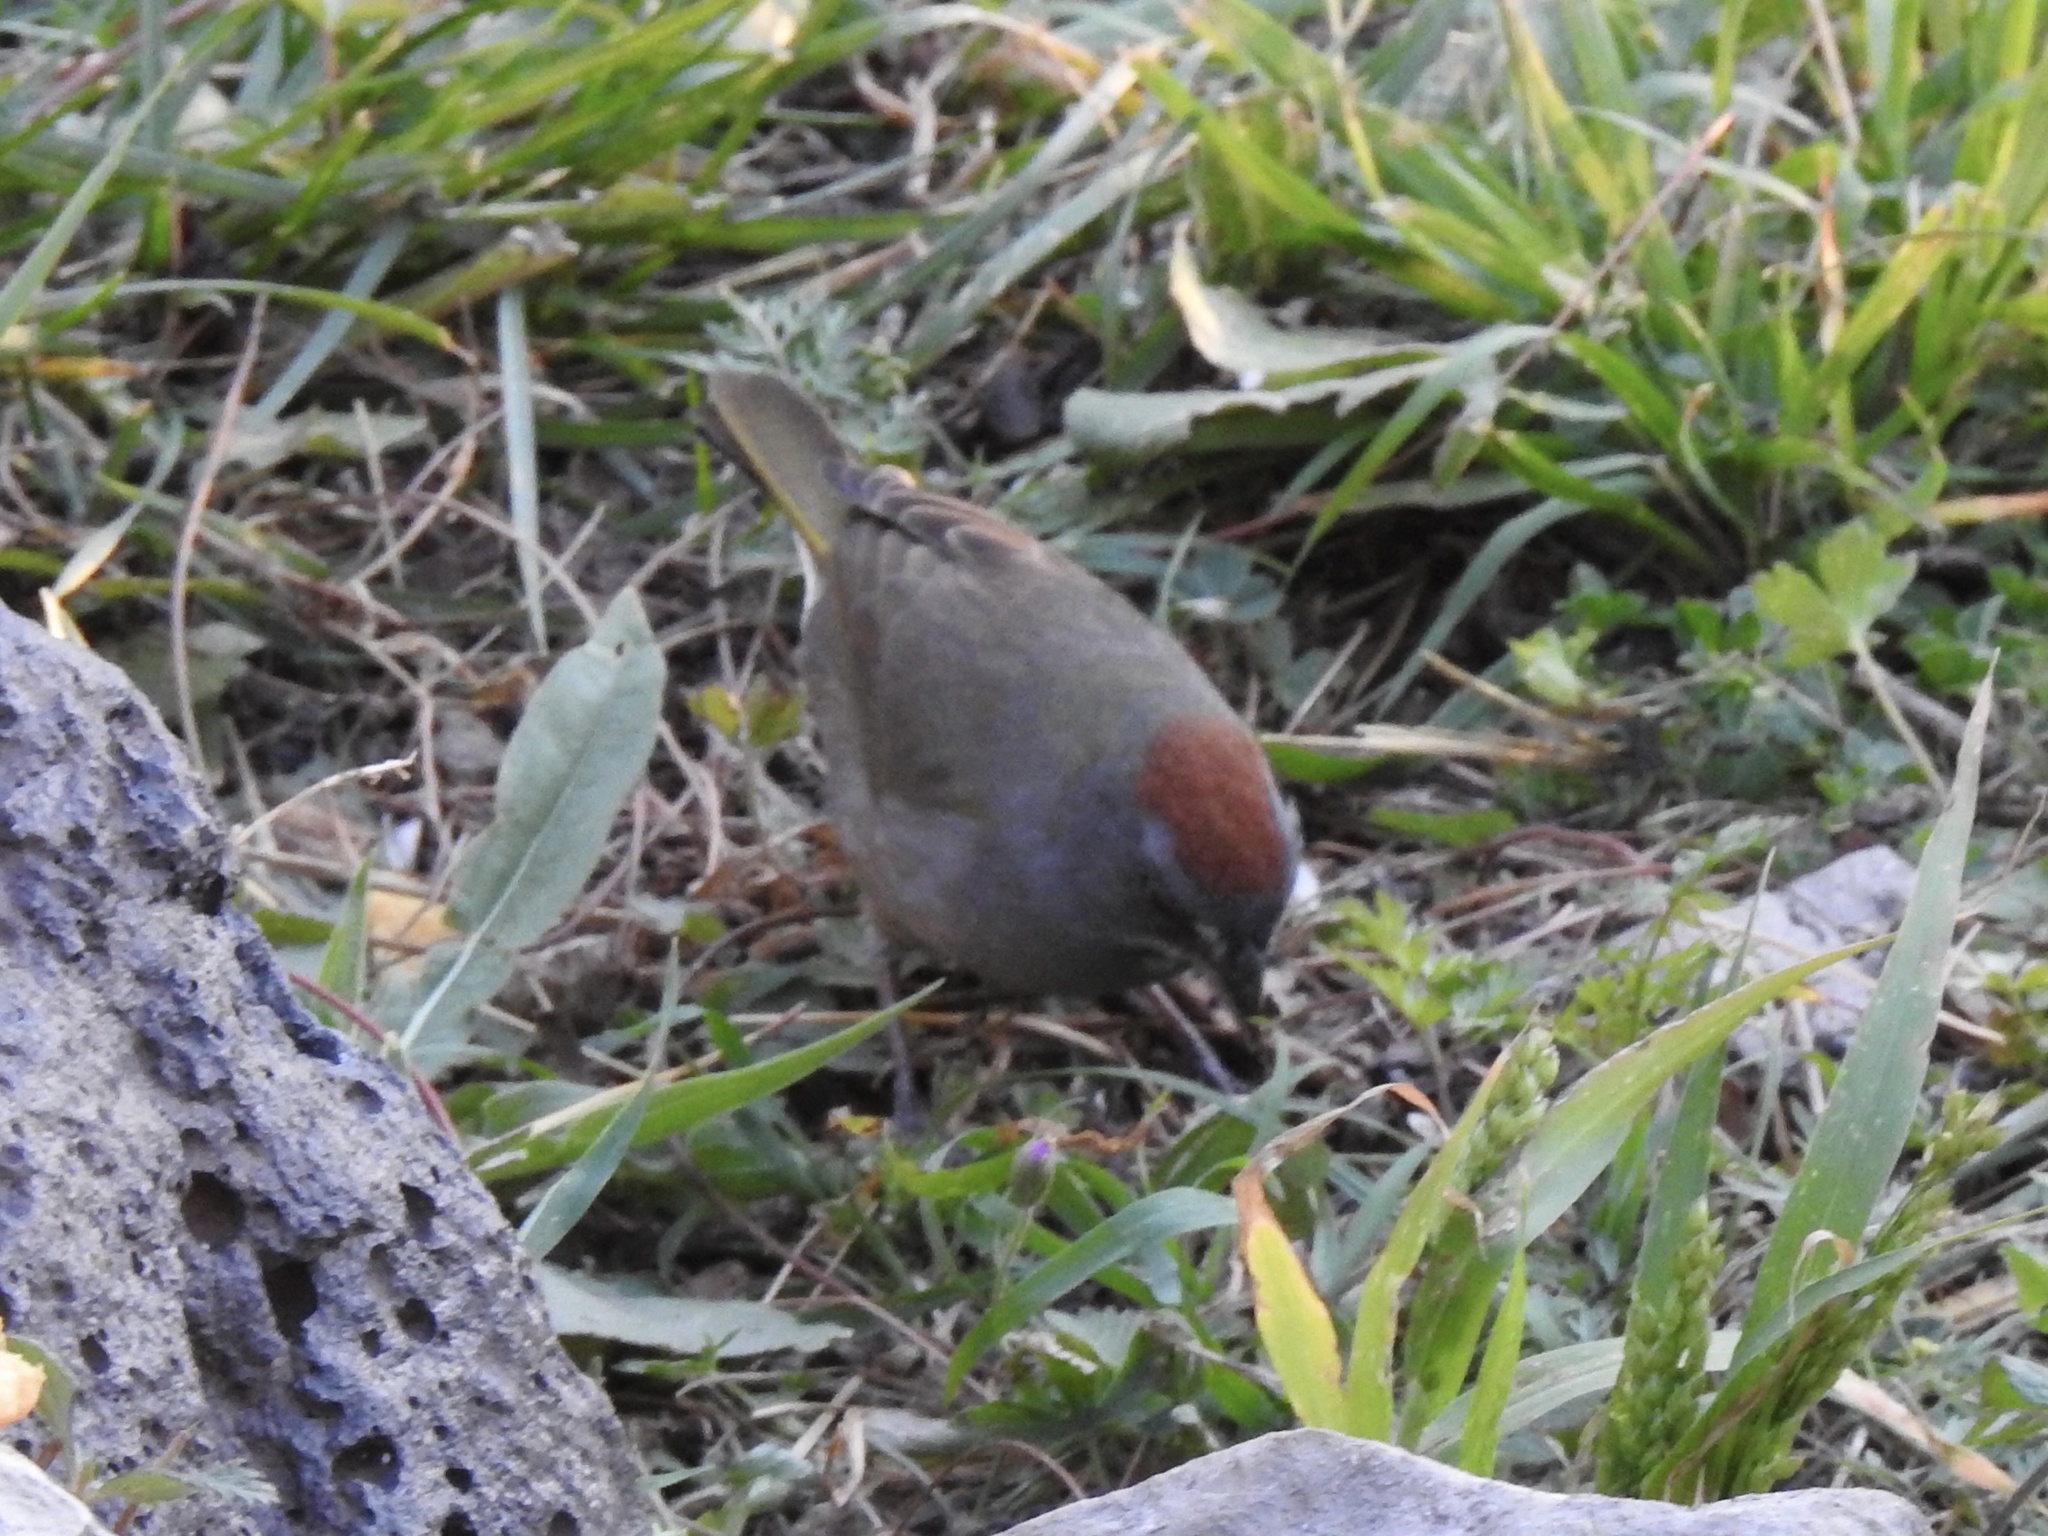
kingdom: Animalia
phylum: Chordata
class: Aves
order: Passeriformes
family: Passerellidae
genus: Pipilo
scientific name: Pipilo chlorurus
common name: Green-tailed towhee
